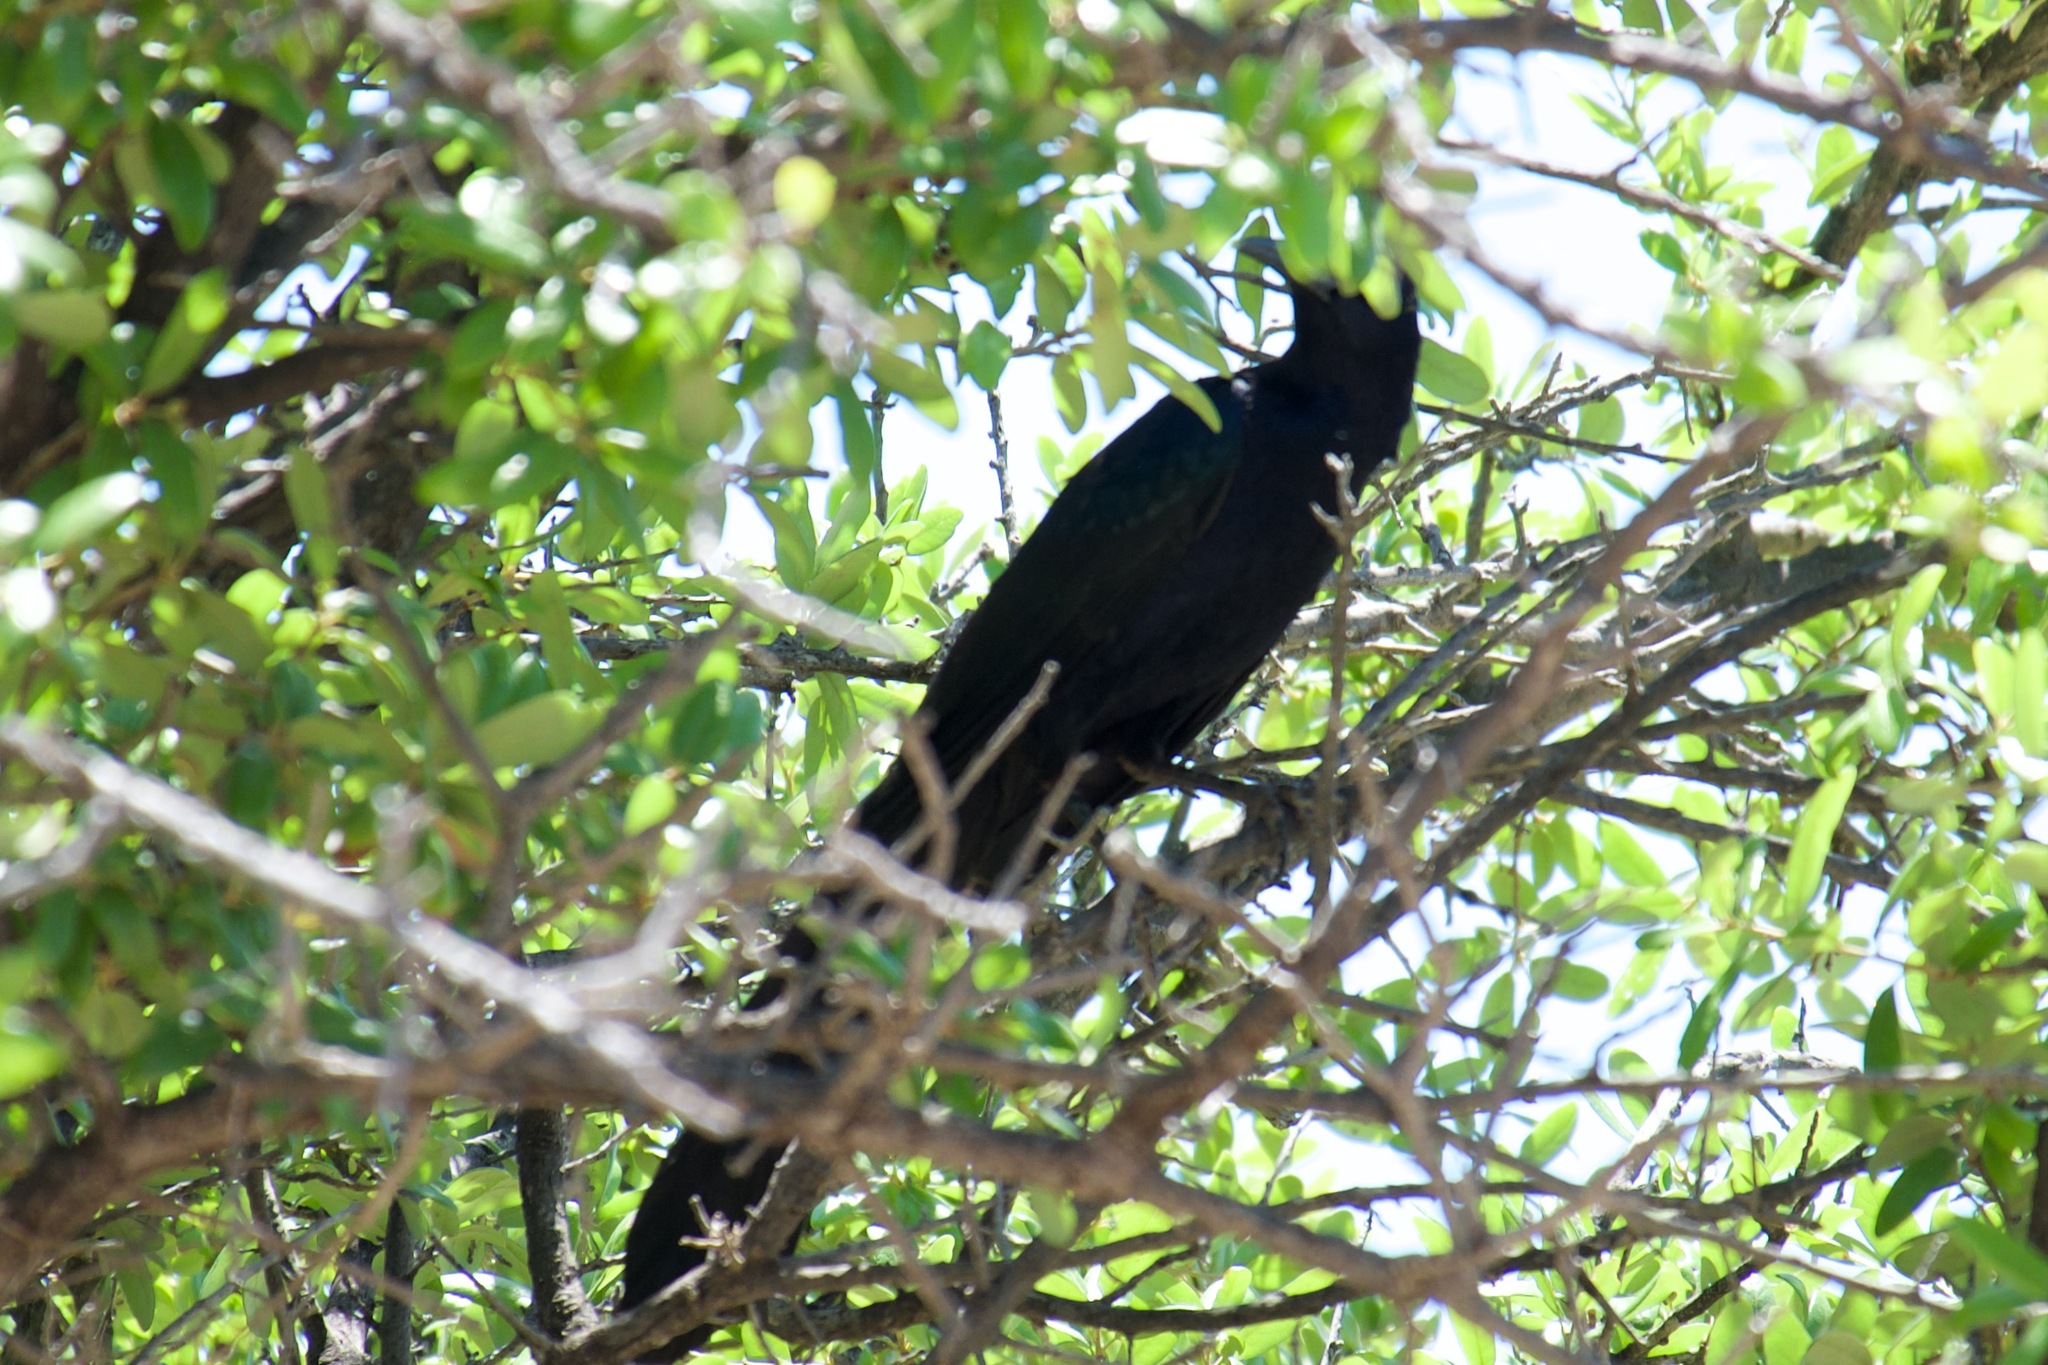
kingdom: Animalia
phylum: Chordata
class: Aves
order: Passeriformes
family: Icteridae
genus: Quiscalus
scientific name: Quiscalus mexicanus
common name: Great-tailed grackle
